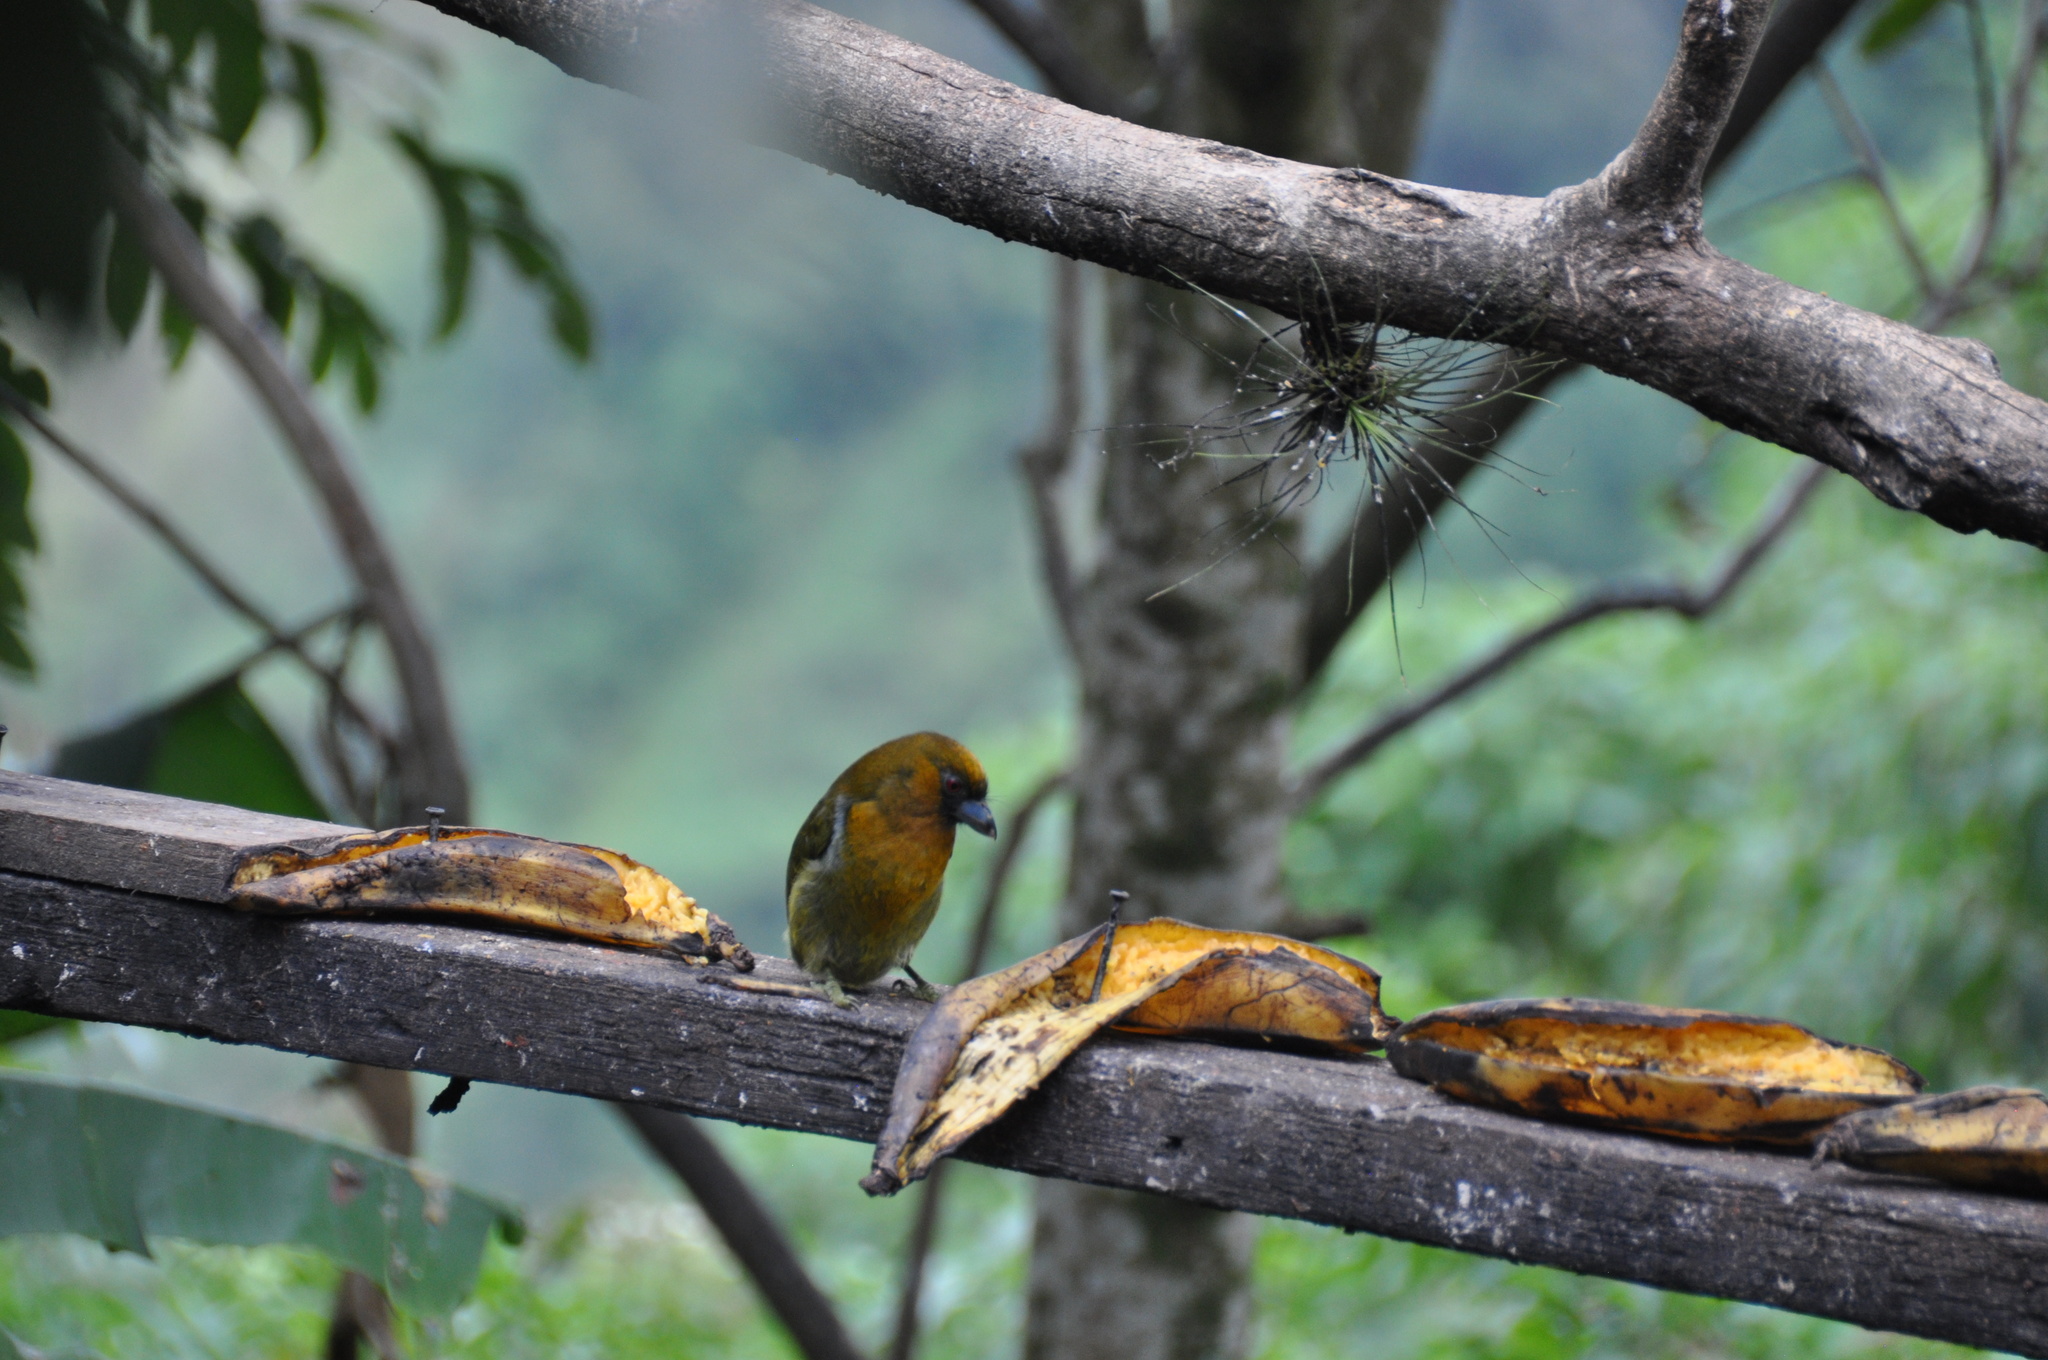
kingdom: Animalia
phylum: Chordata
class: Aves
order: Piciformes
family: Semnornithidae
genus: Semnornis
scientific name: Semnornis frantzii
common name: Prong-billed barbet
